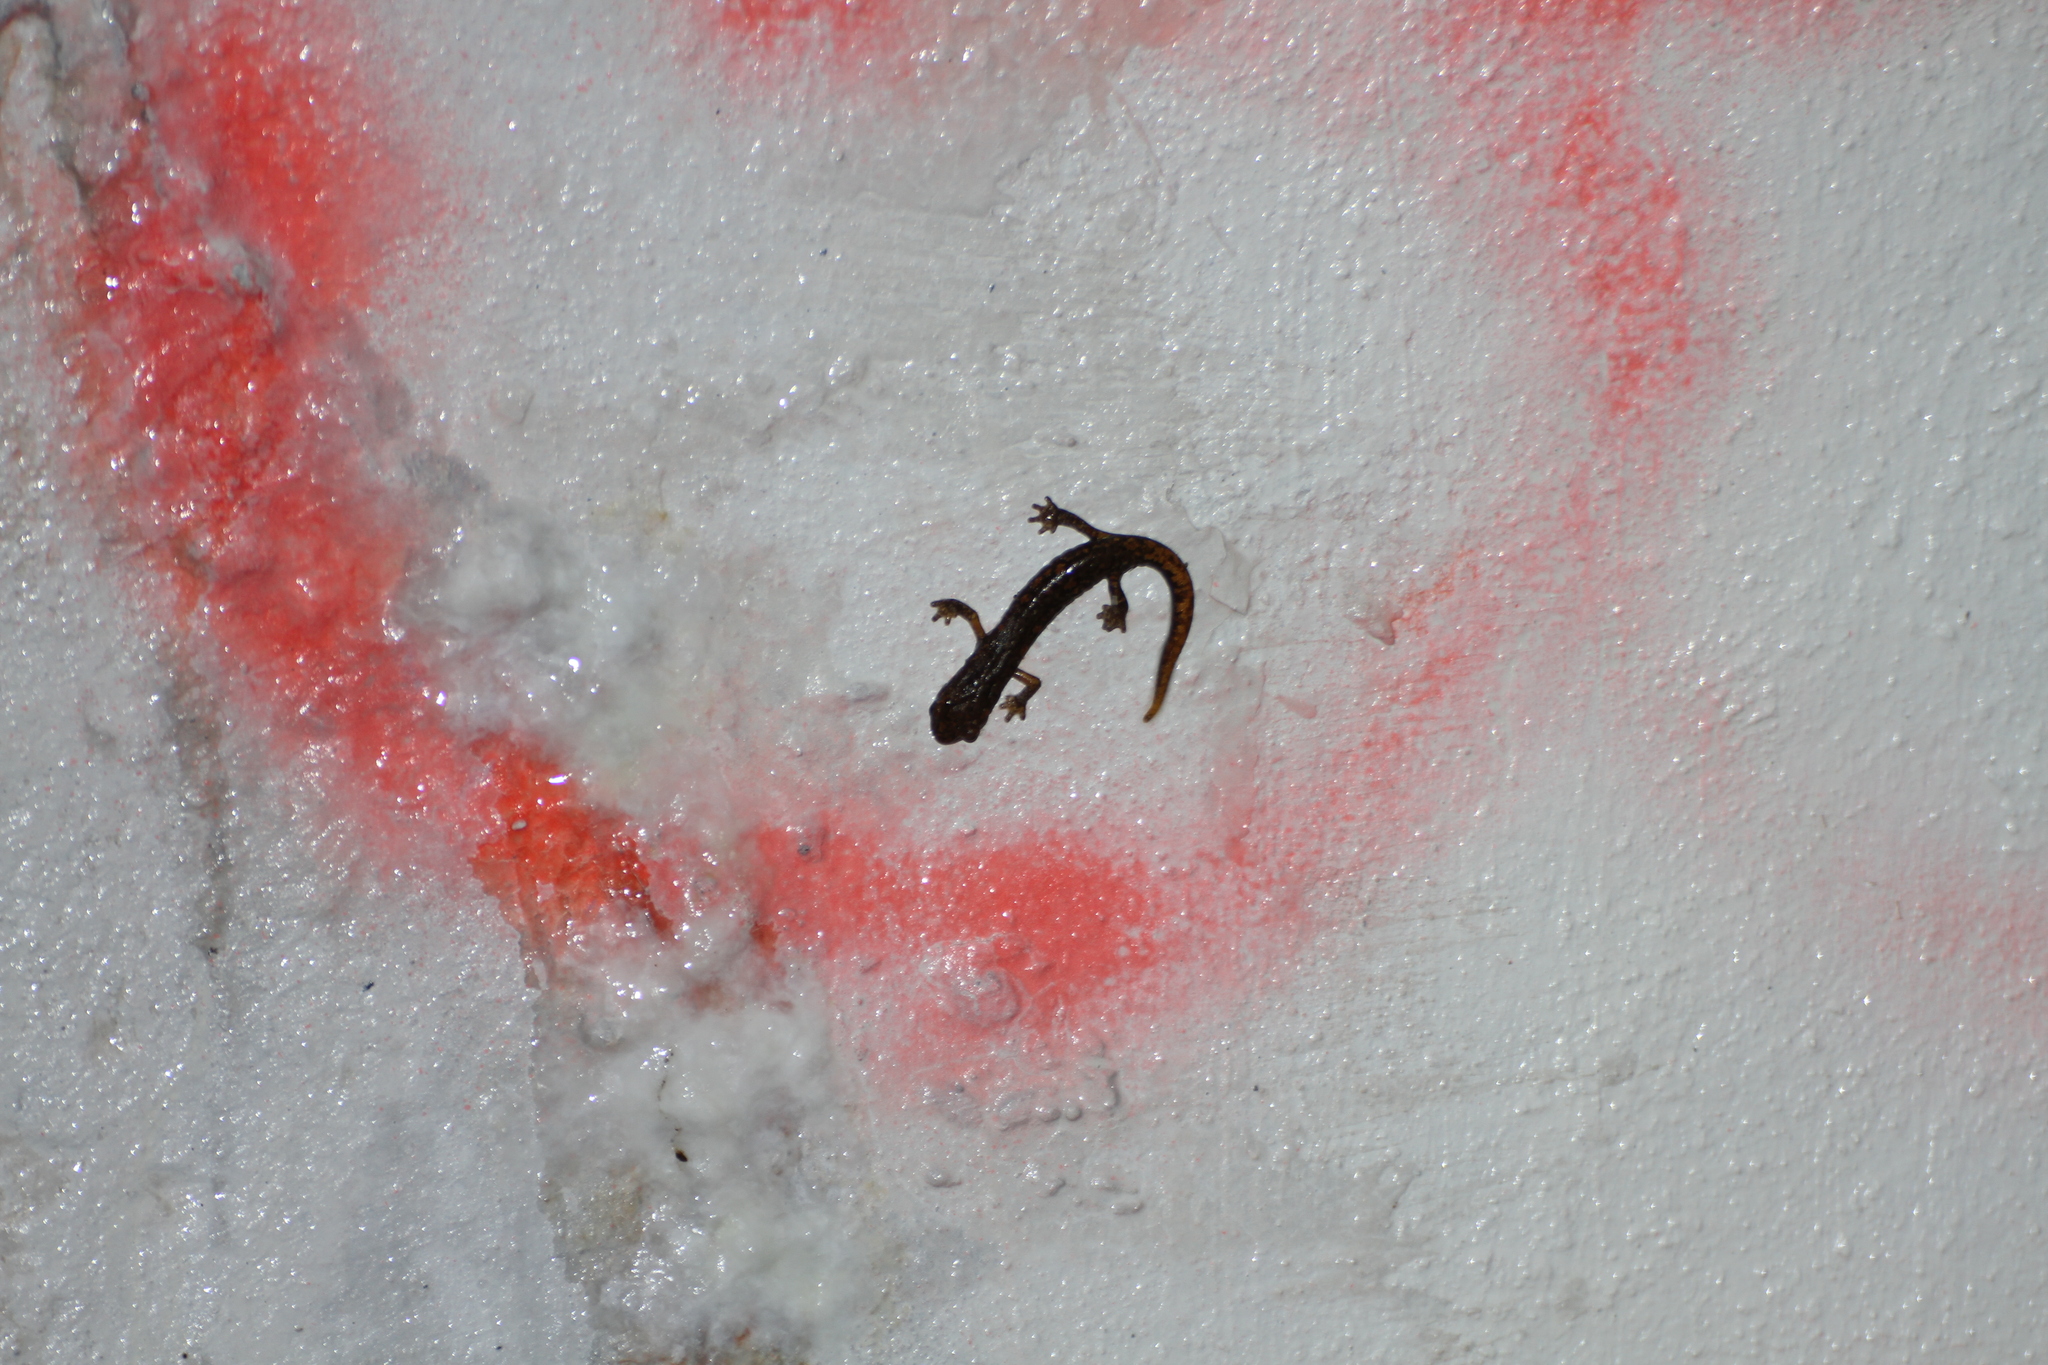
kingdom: Animalia
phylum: Chordata
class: Amphibia
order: Caudata
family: Plethodontidae
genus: Speleomantes
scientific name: Speleomantes strinatii
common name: French cave salamander
